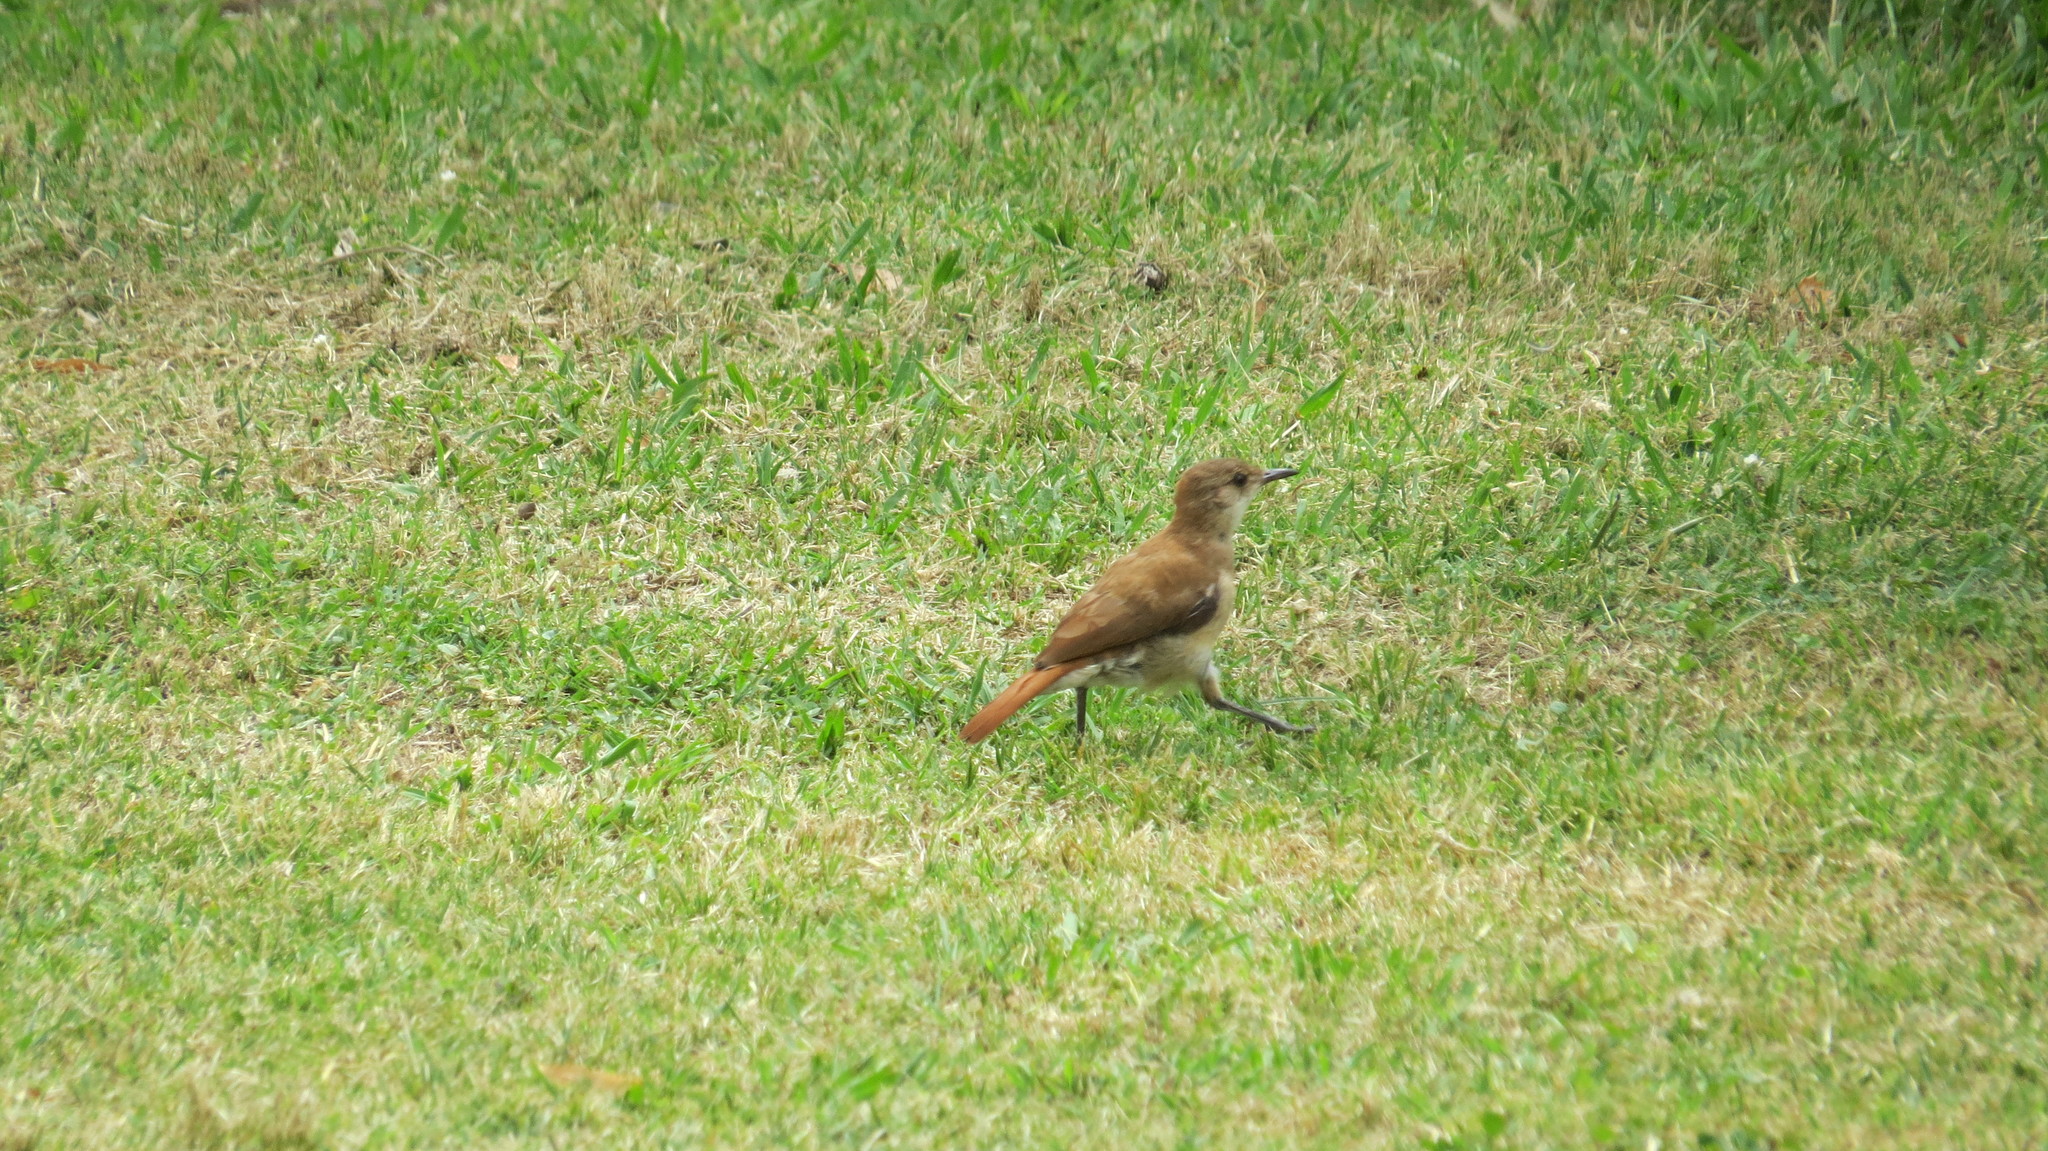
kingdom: Animalia
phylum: Chordata
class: Aves
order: Passeriformes
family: Furnariidae
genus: Furnarius
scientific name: Furnarius rufus
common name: Rufous hornero
